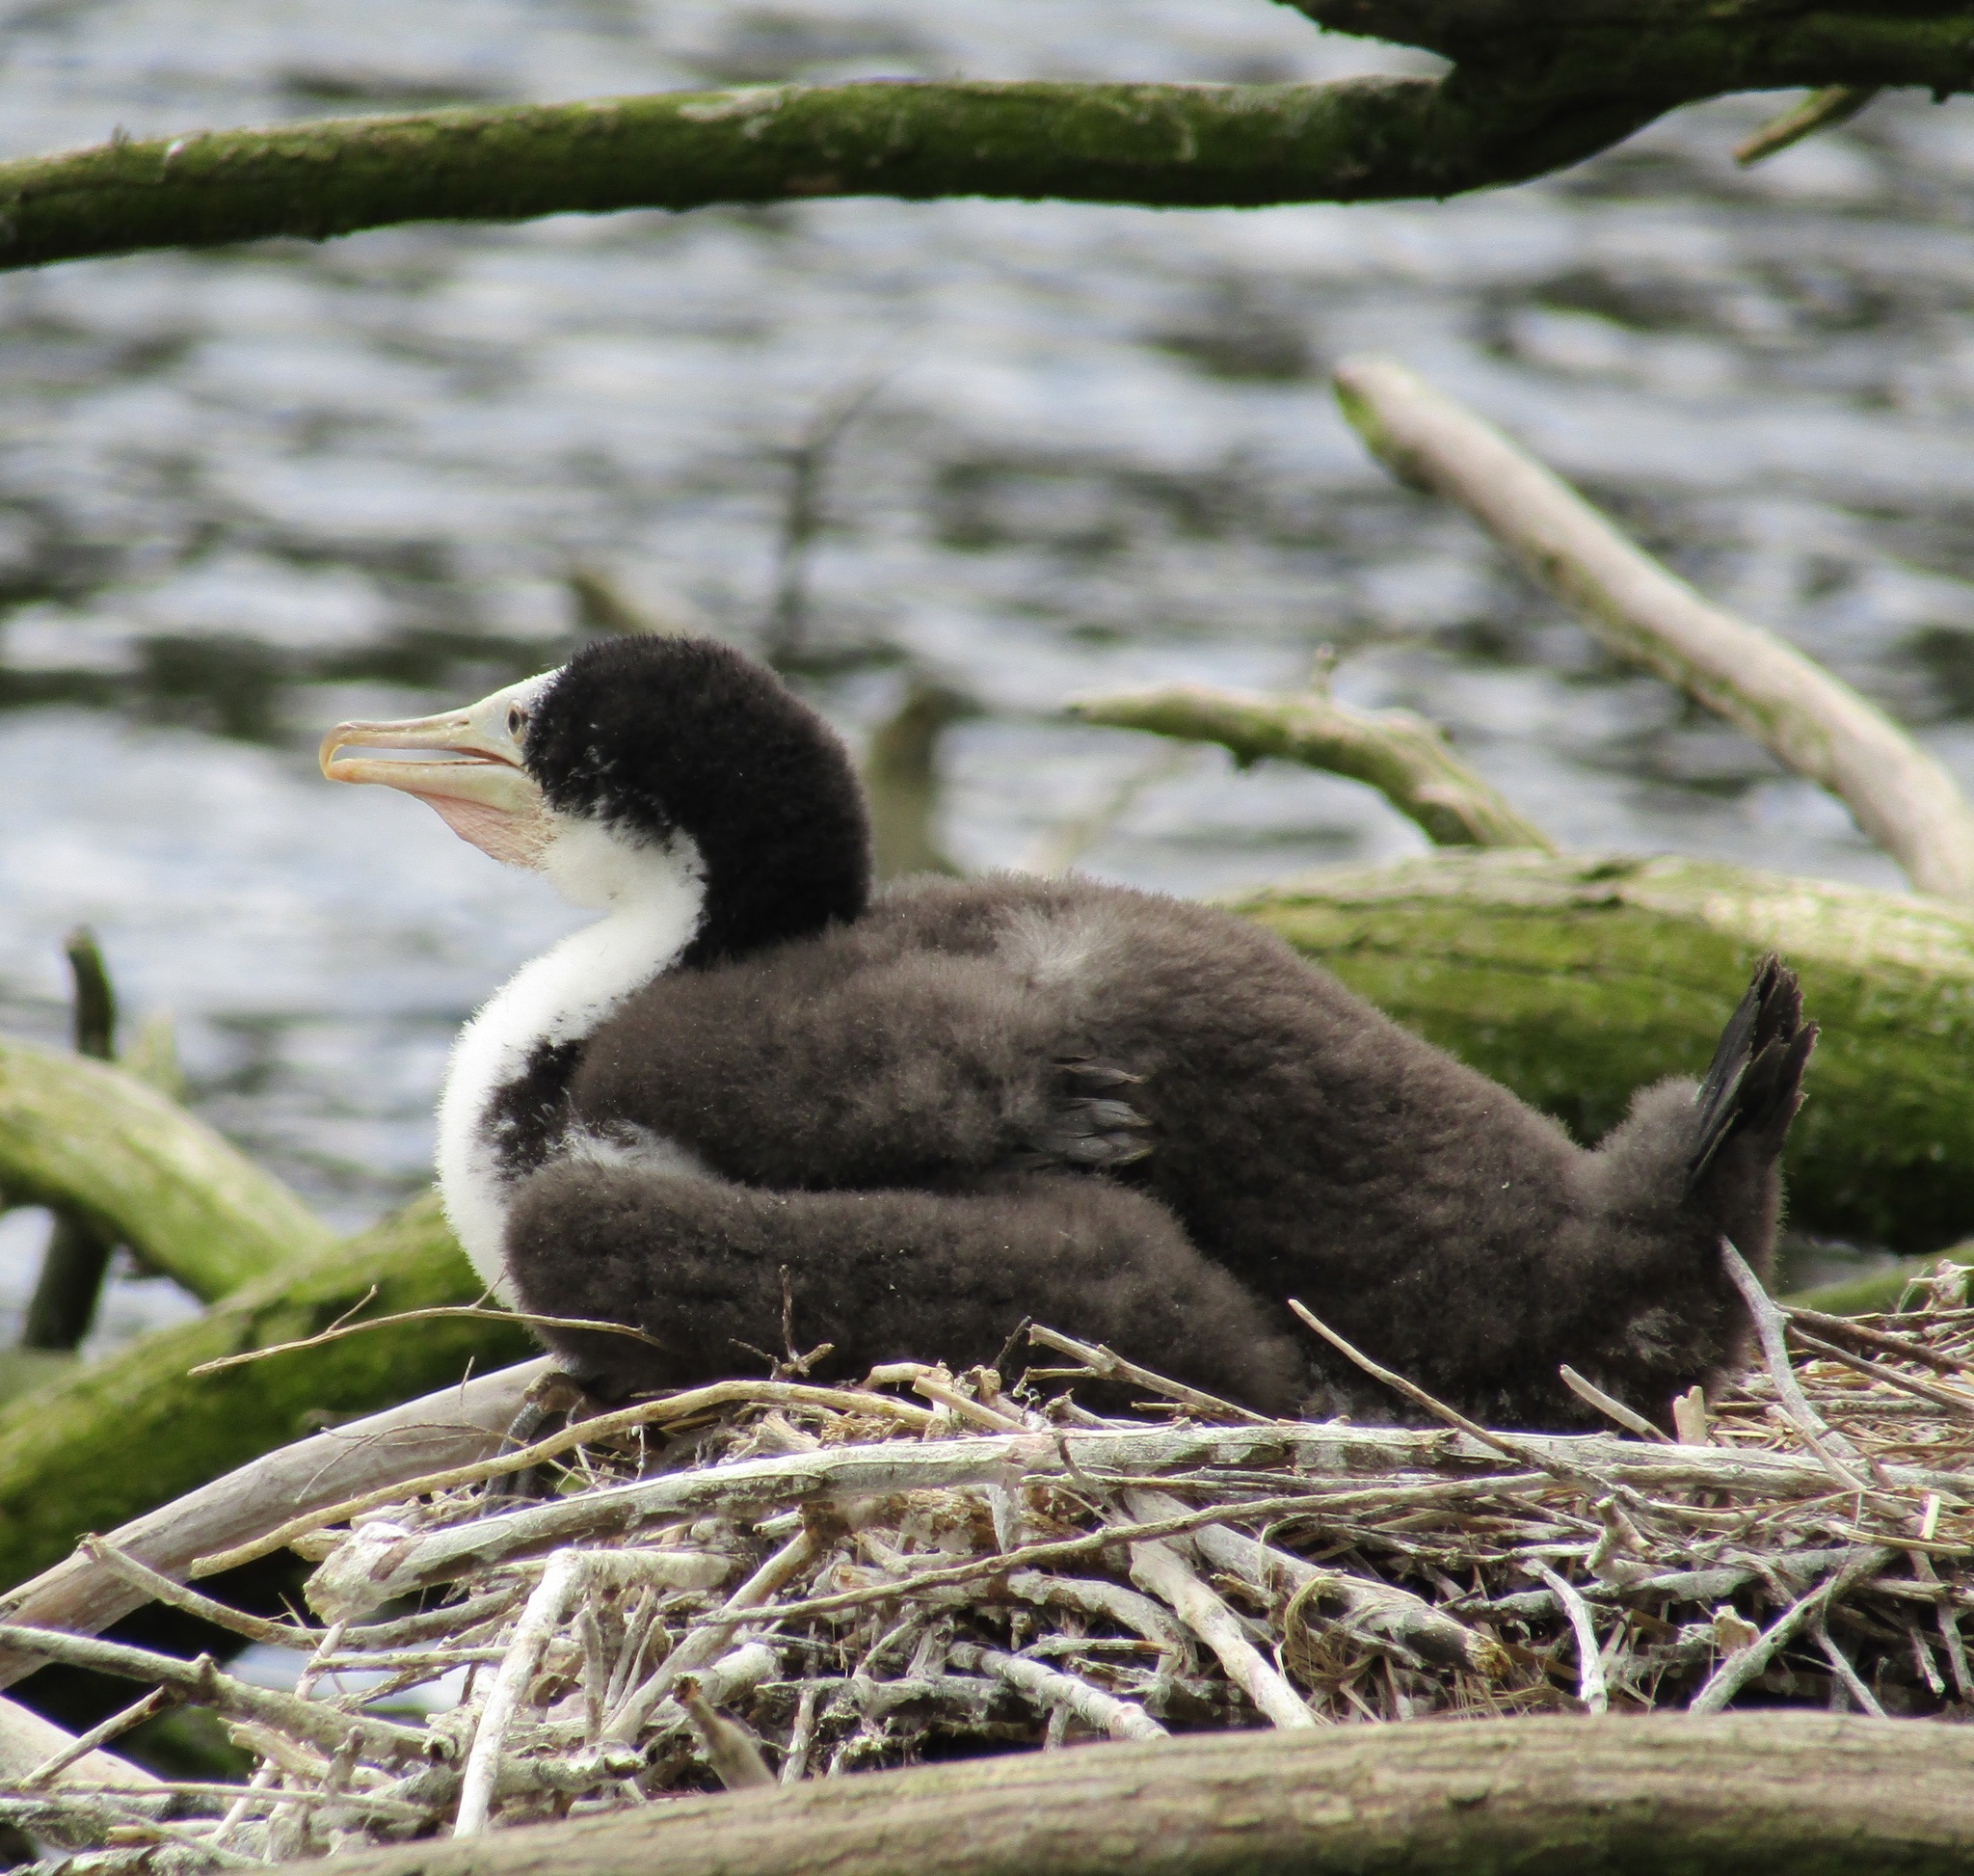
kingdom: Animalia
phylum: Chordata
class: Aves
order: Suliformes
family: Phalacrocoracidae
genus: Phalacrocorax
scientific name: Phalacrocorax varius
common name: Pied cormorant
